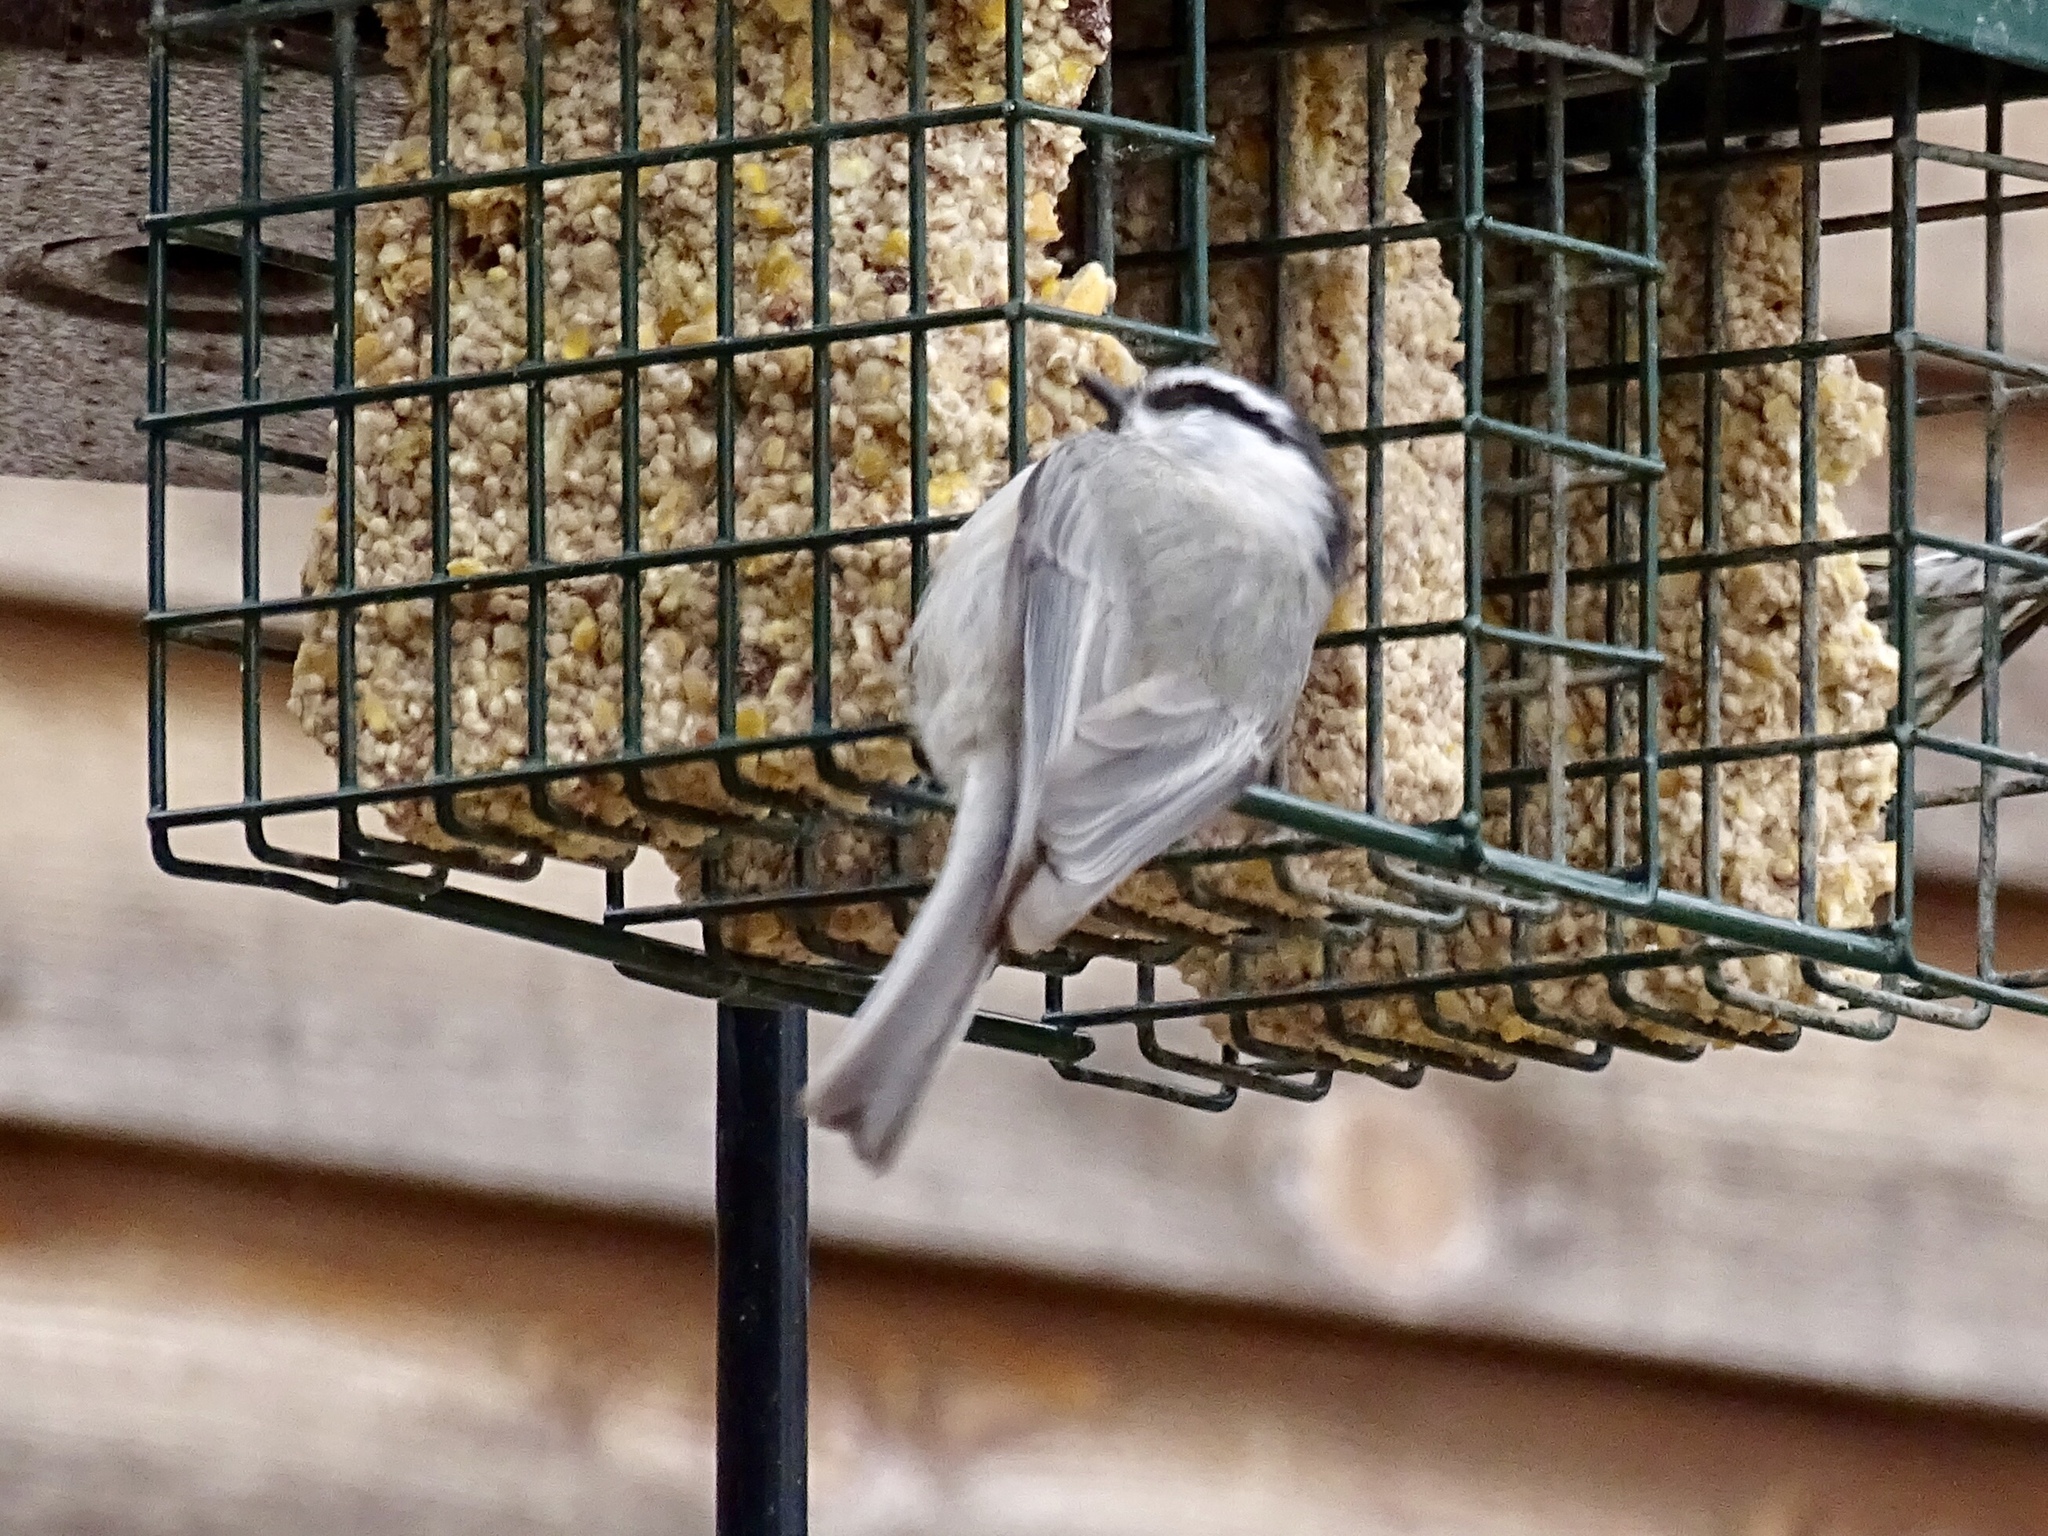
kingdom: Animalia
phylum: Chordata
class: Aves
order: Passeriformes
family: Paridae
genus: Poecile
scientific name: Poecile gambeli
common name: Mountain chickadee
